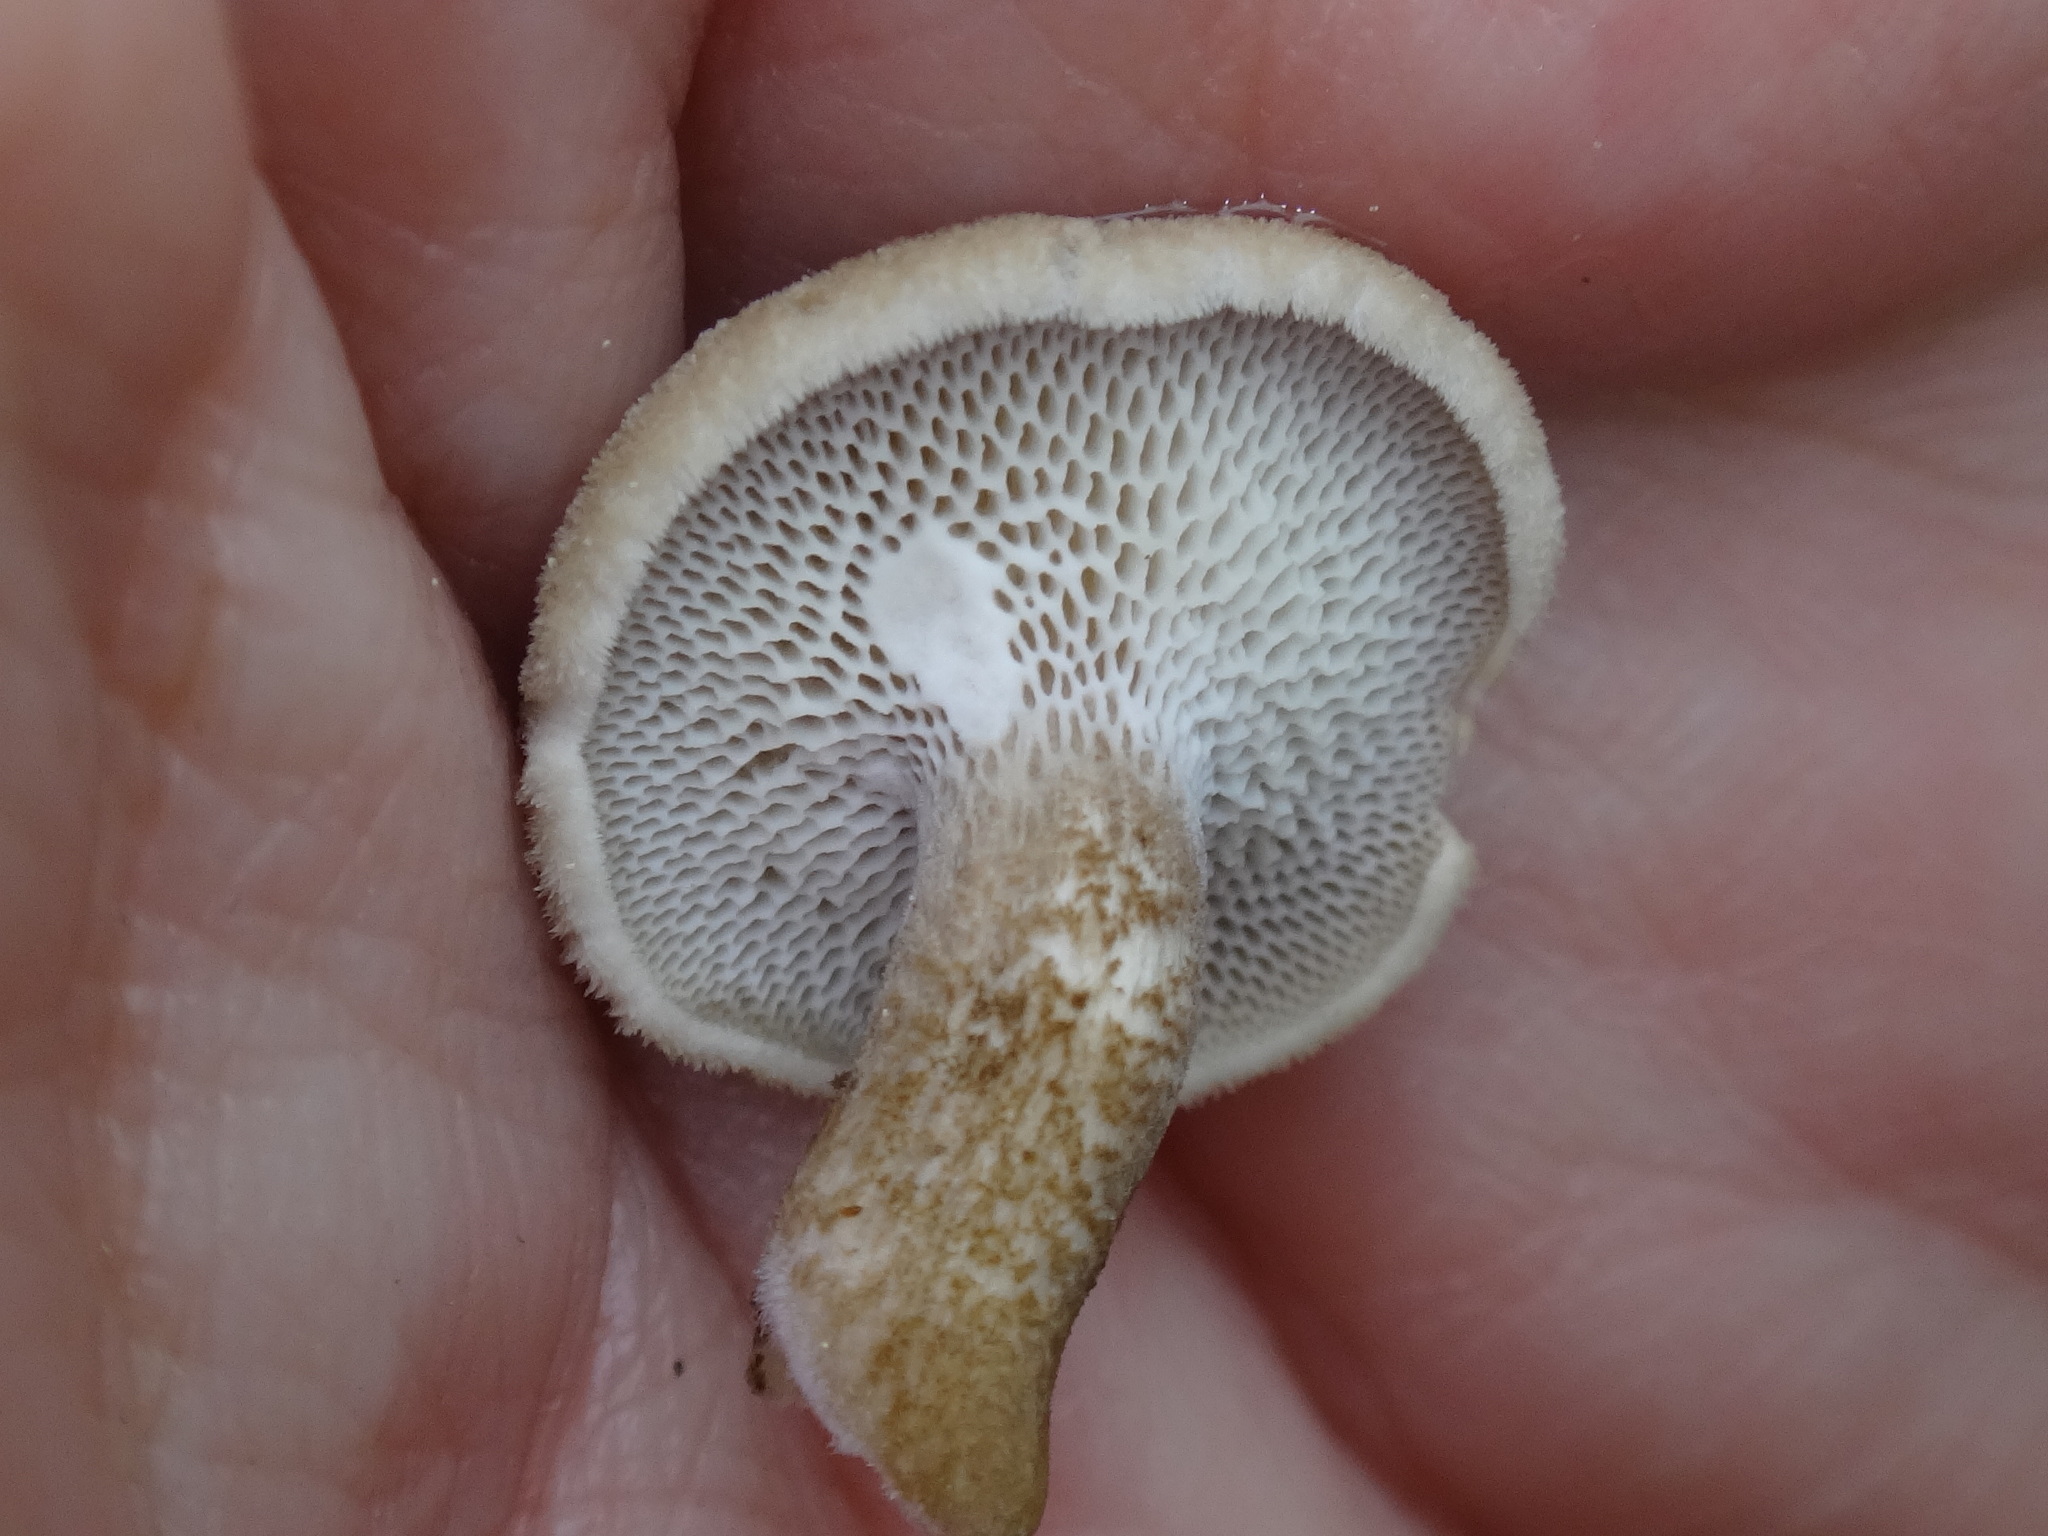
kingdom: Fungi
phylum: Basidiomycota
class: Agaricomycetes
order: Polyporales
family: Polyporaceae
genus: Lentinus
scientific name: Lentinus arcularius
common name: Spring polypore
